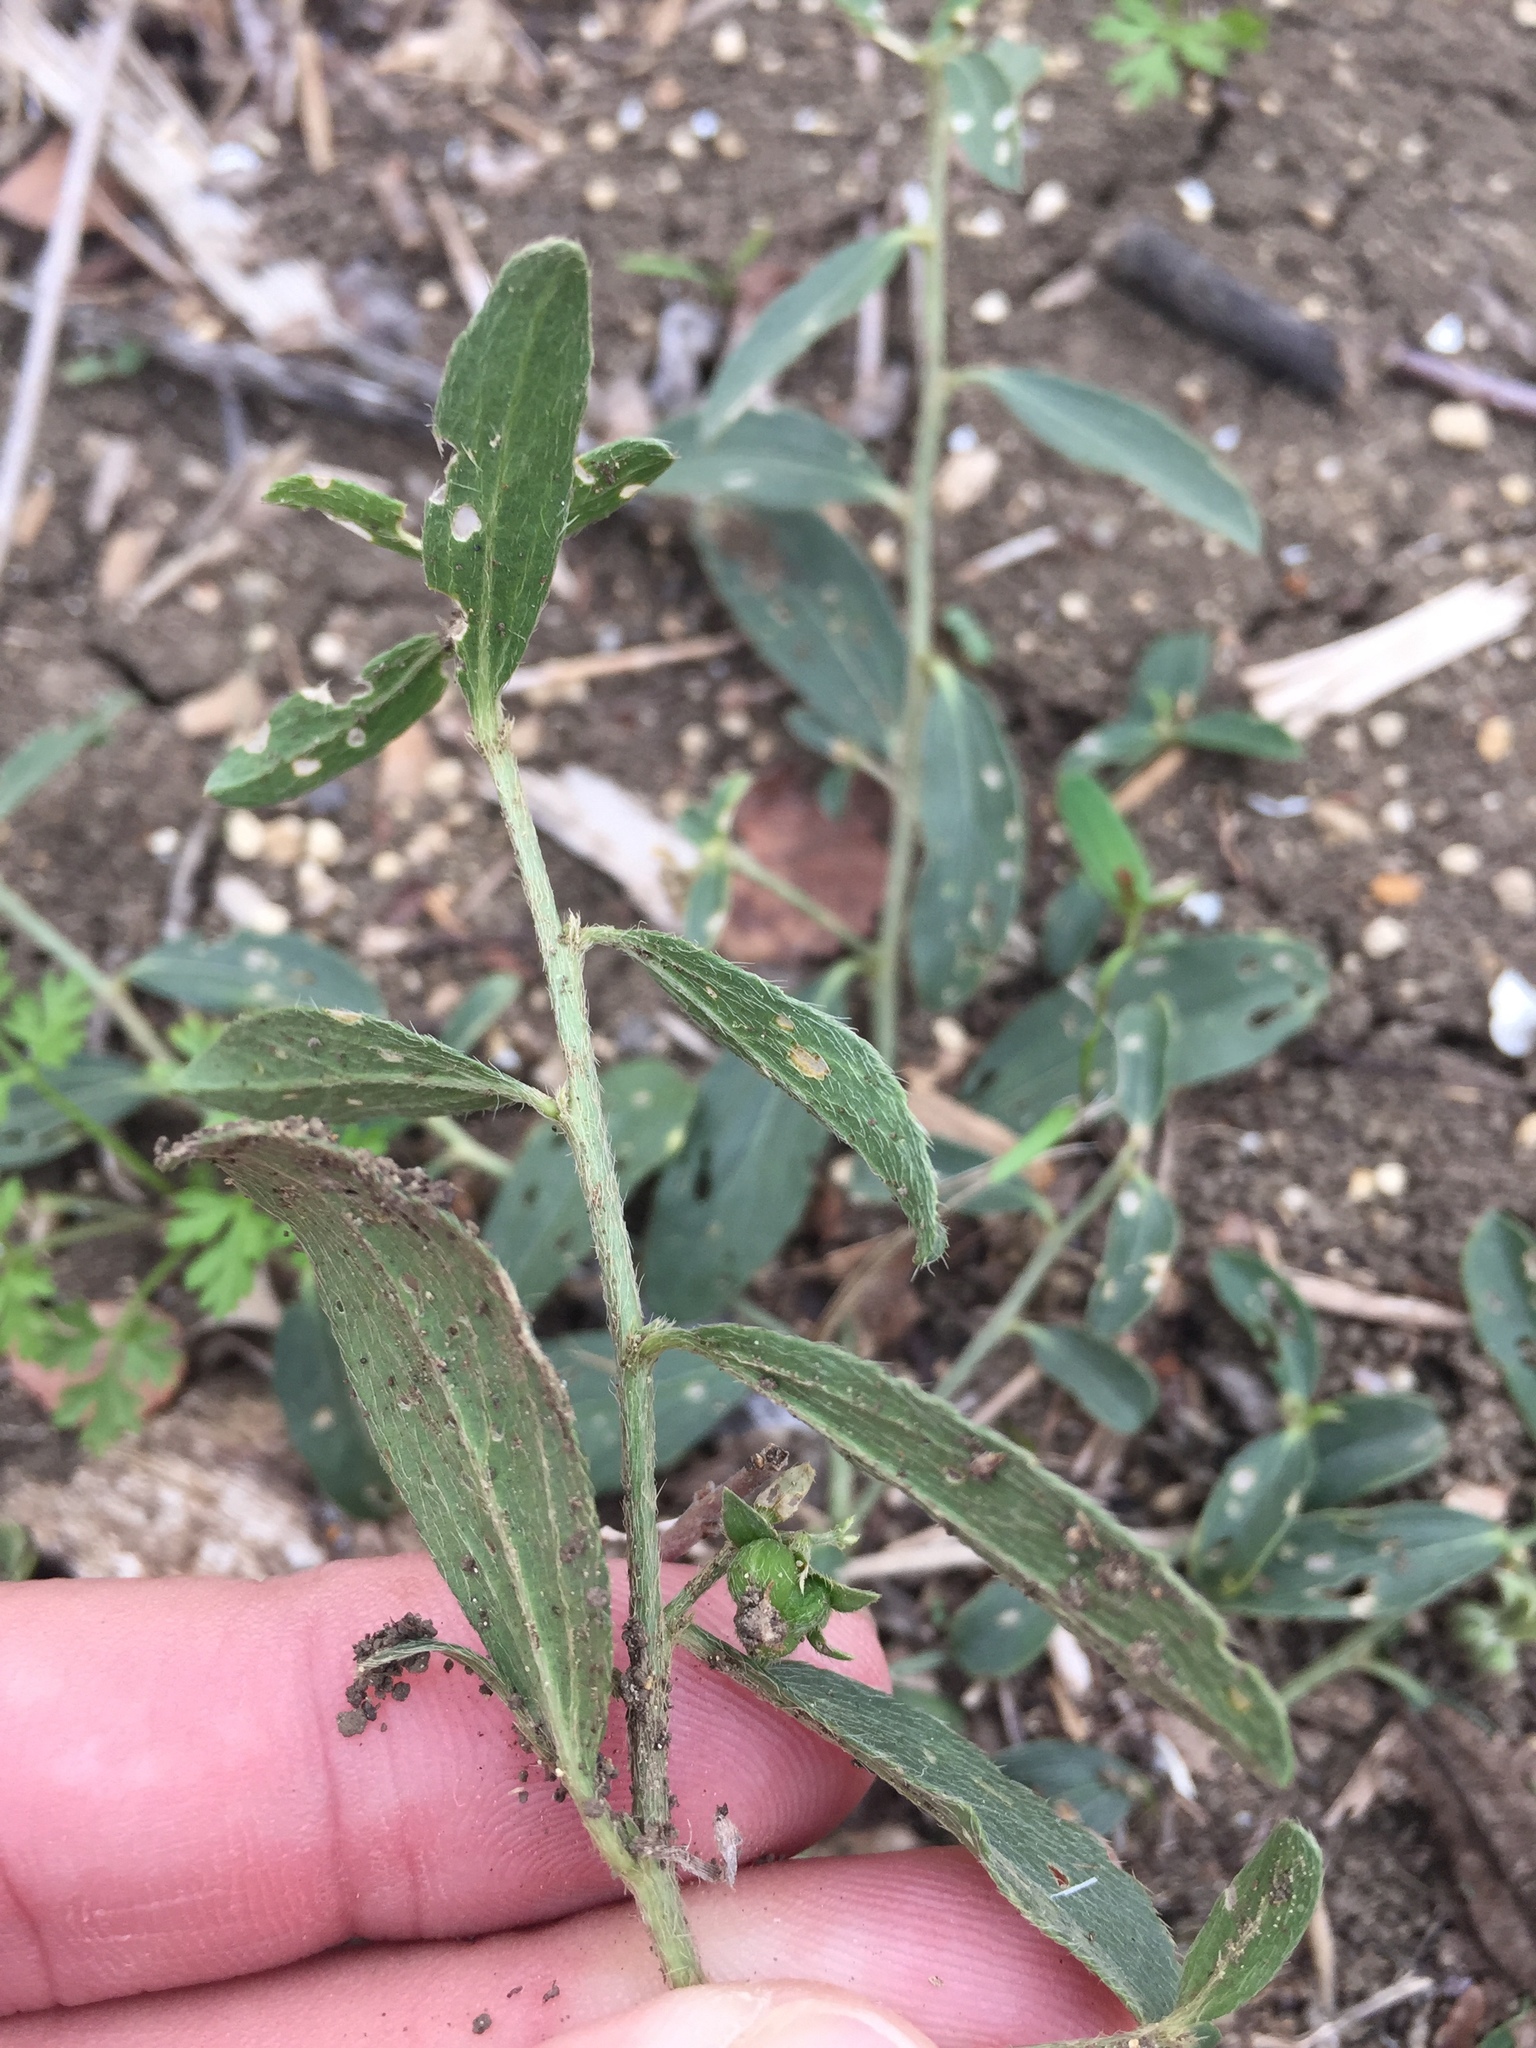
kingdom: Plantae
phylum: Tracheophyta
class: Magnoliopsida
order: Malpighiales
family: Euphorbiaceae
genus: Ditaxis
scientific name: Ditaxis humilis
